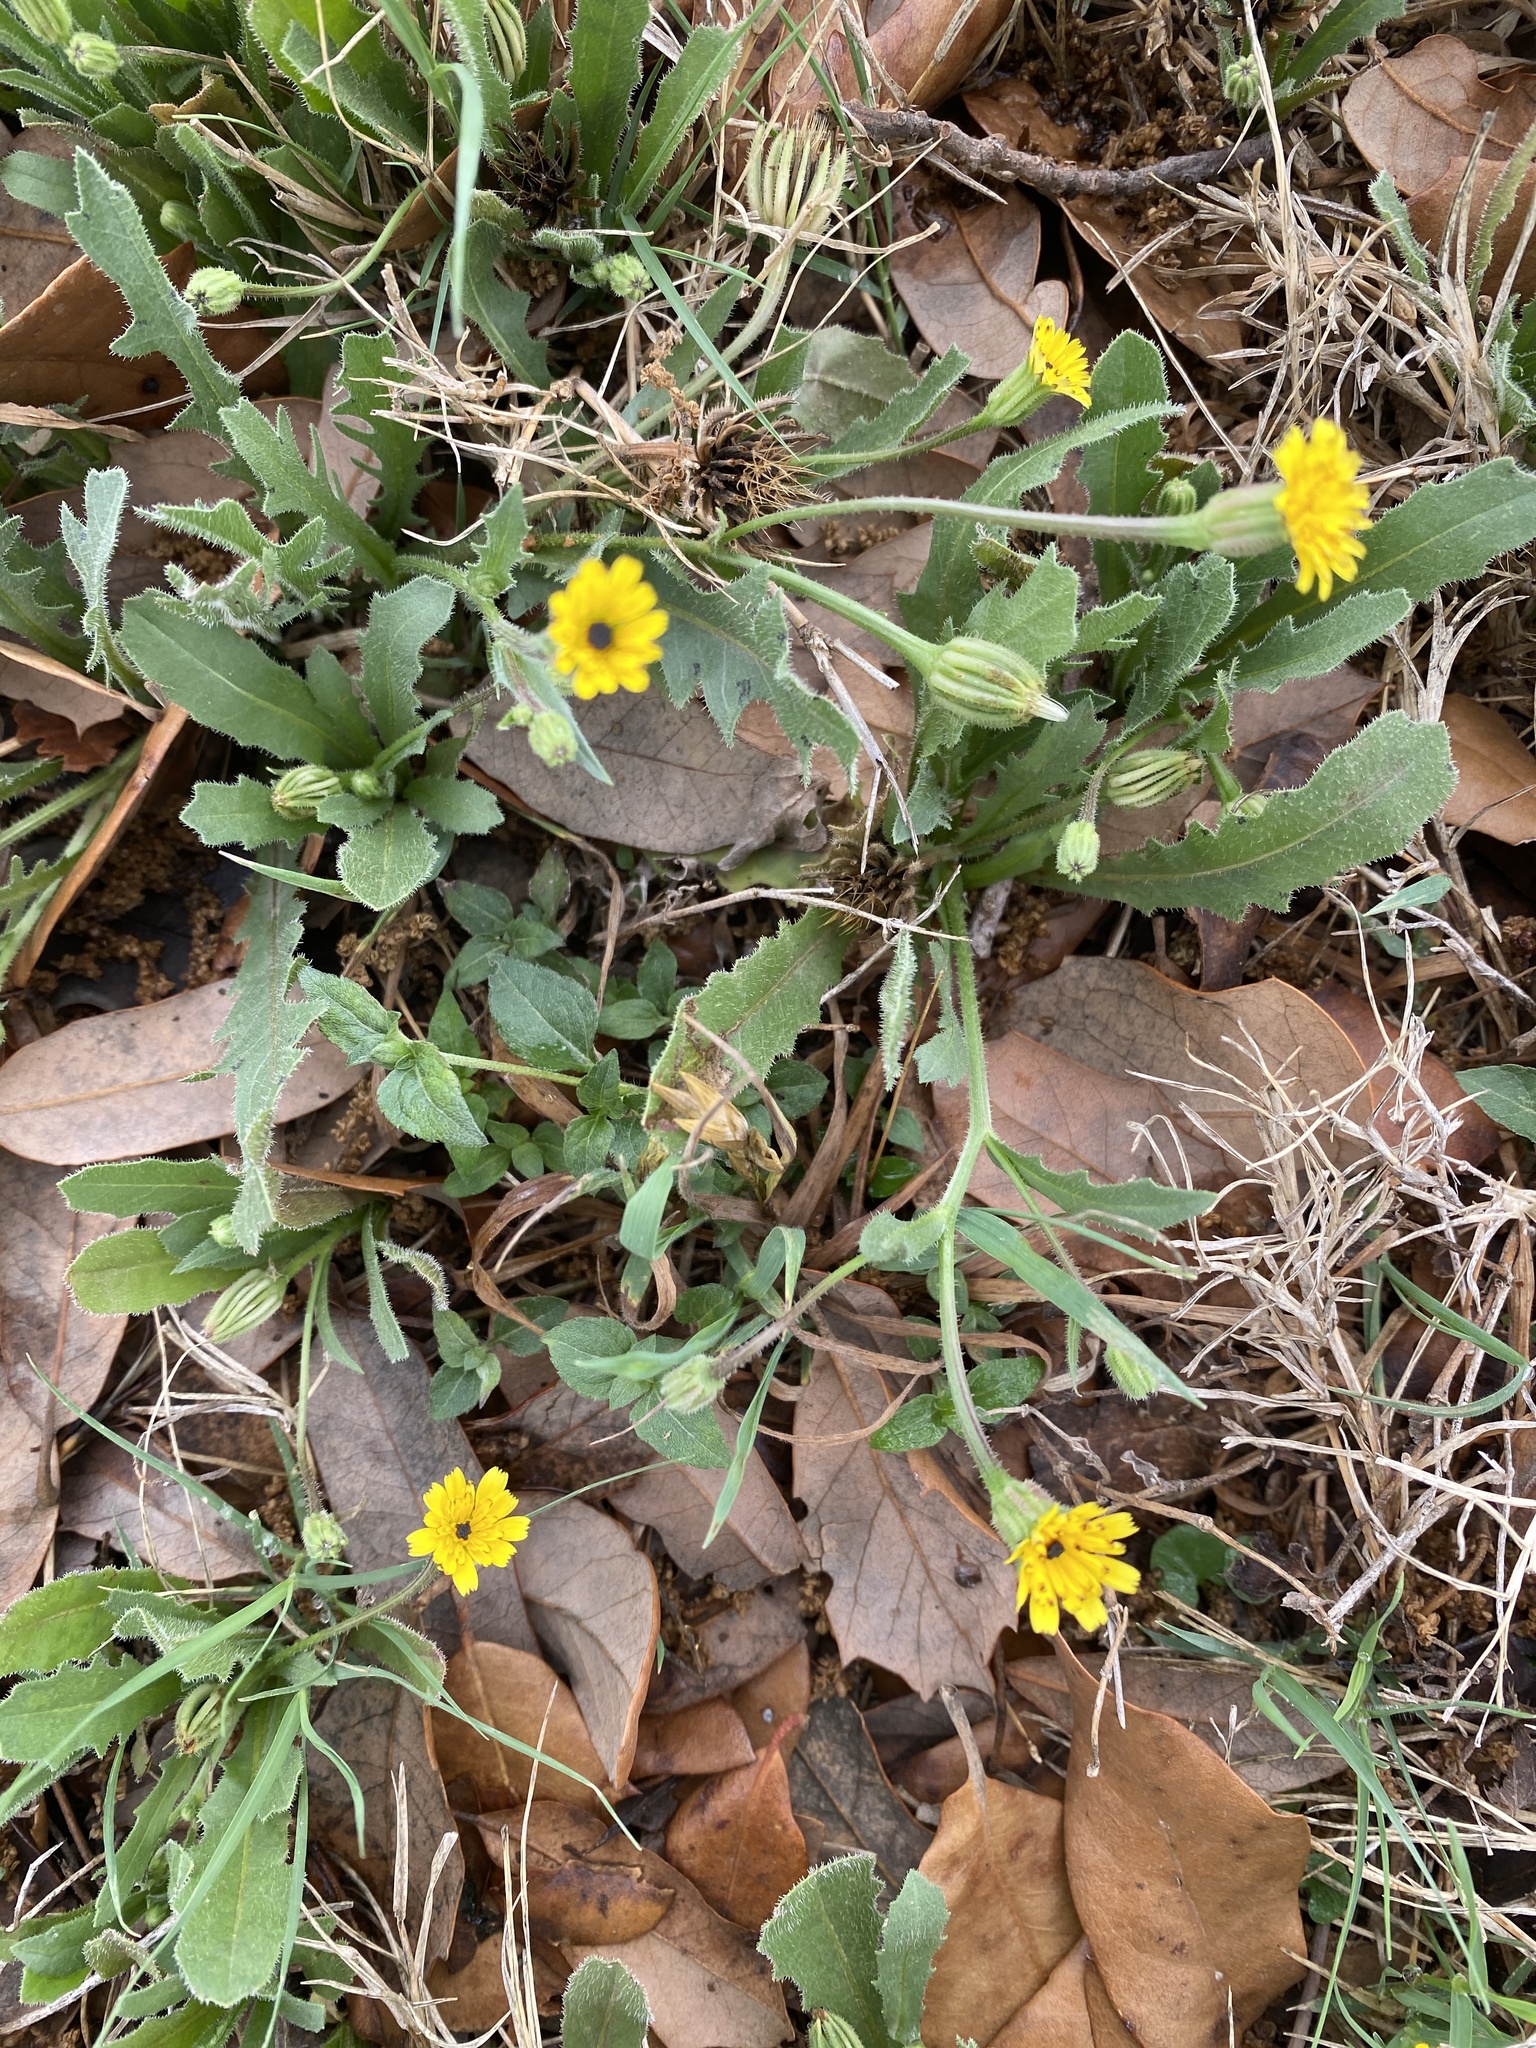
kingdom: Plantae
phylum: Tracheophyta
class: Magnoliopsida
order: Asterales
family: Asteraceae
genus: Hedypnois
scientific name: Hedypnois rhagadioloides
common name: Cretan weed
